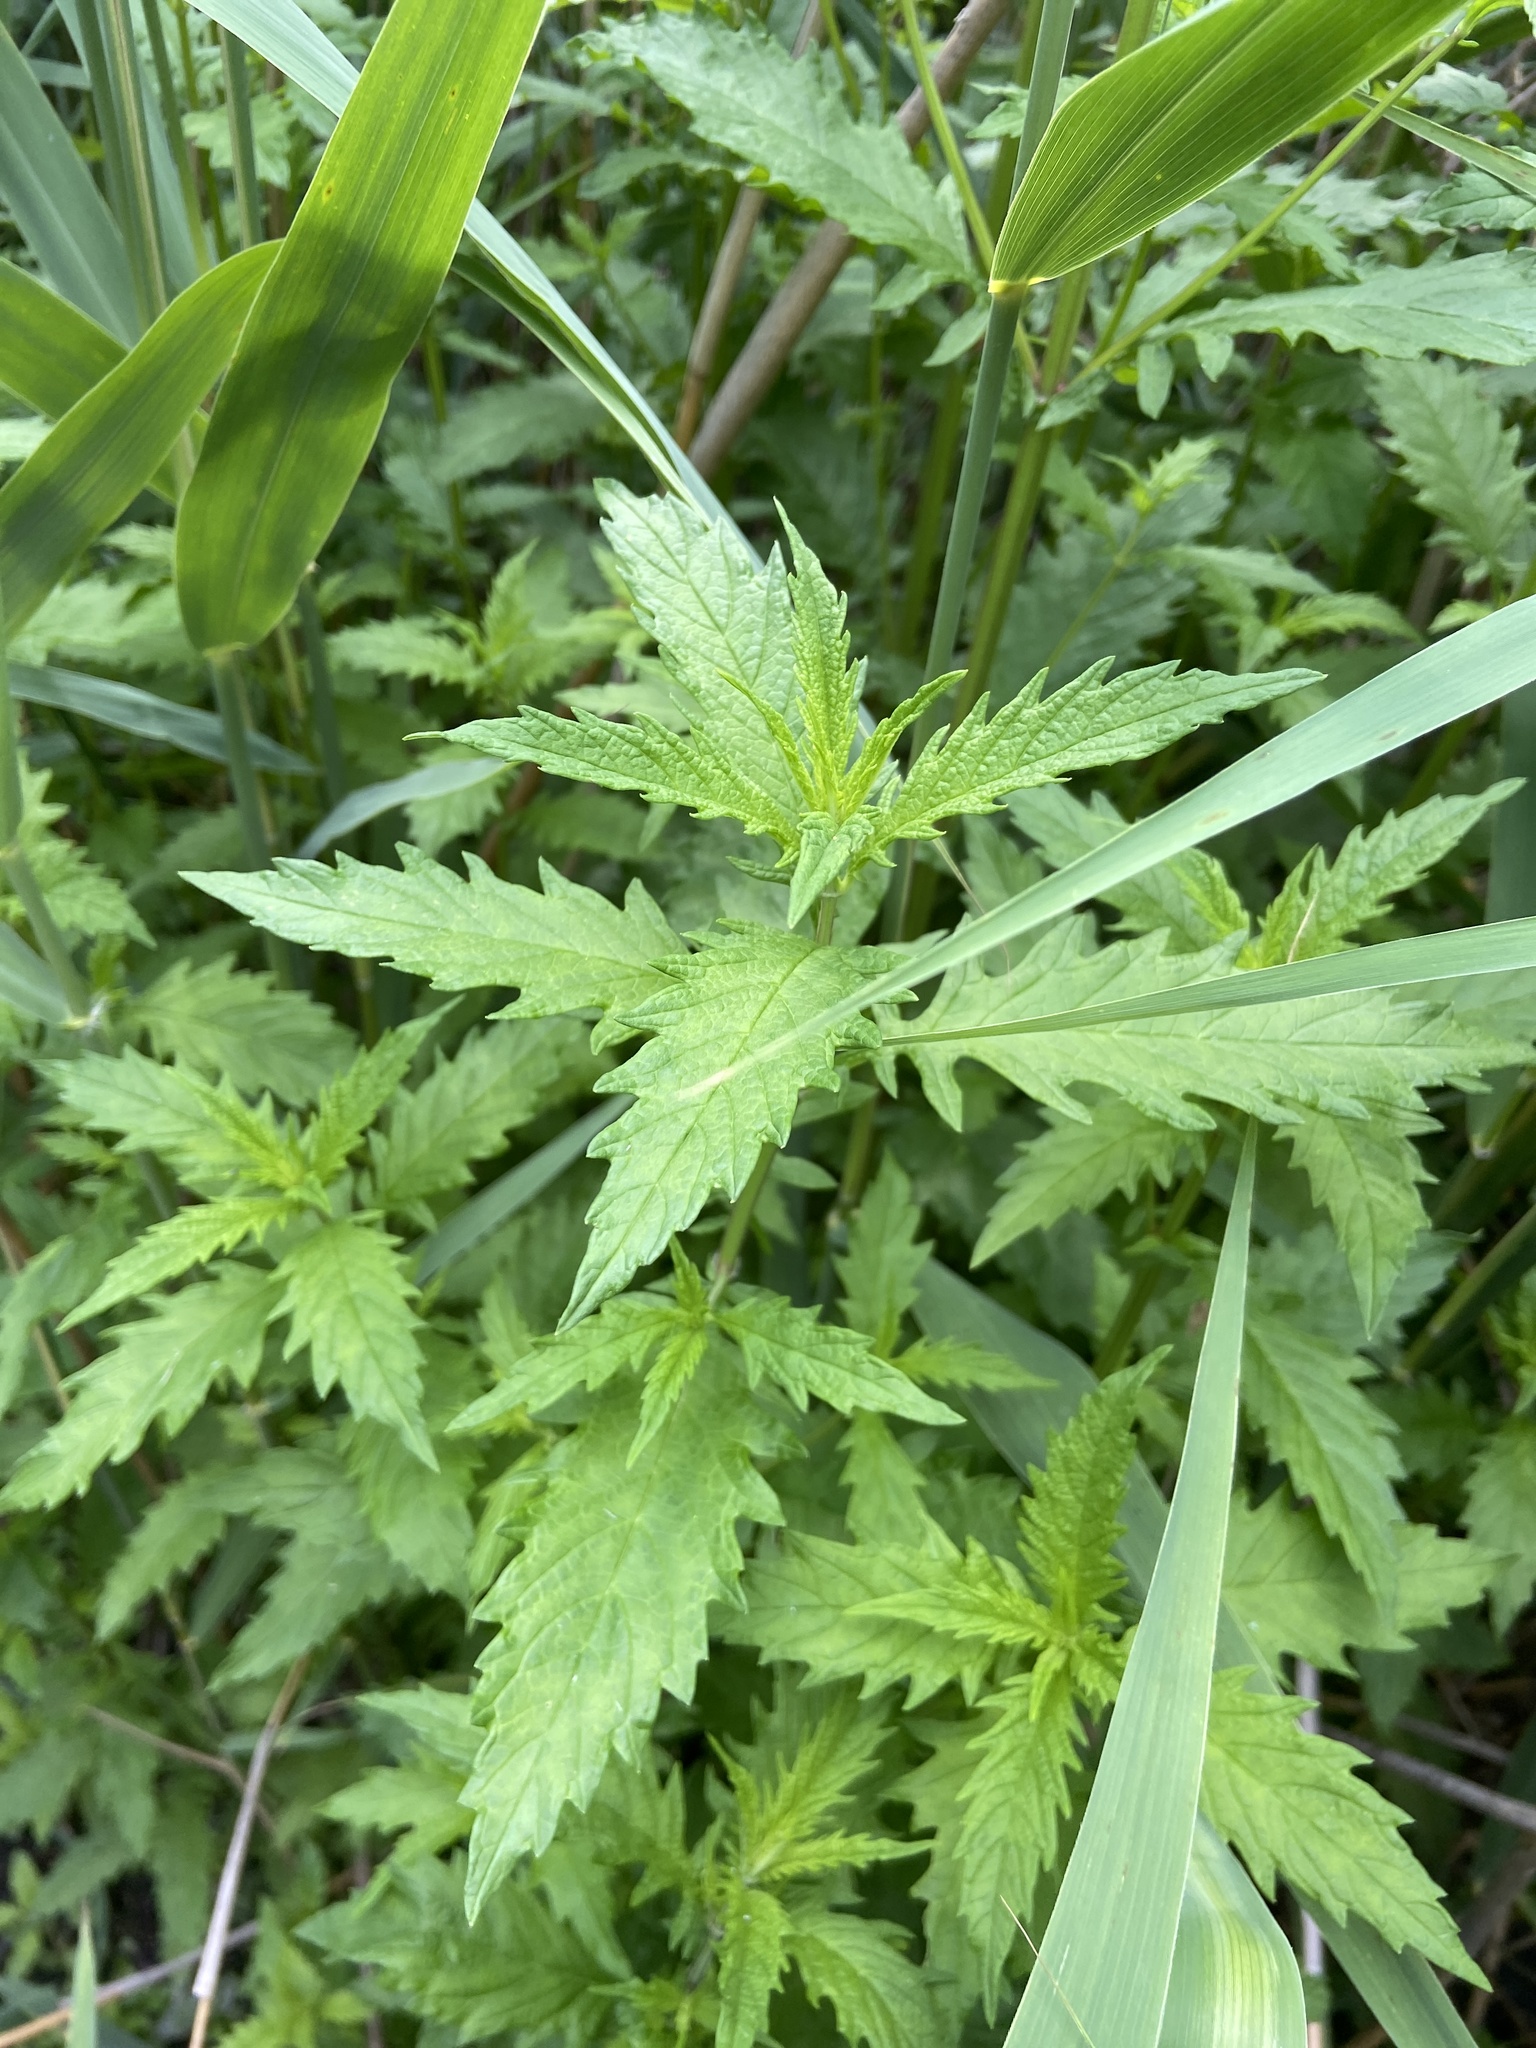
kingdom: Plantae
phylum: Tracheophyta
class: Magnoliopsida
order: Lamiales
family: Lamiaceae
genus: Lycopus
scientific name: Lycopus europaeus
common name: European bugleweed
